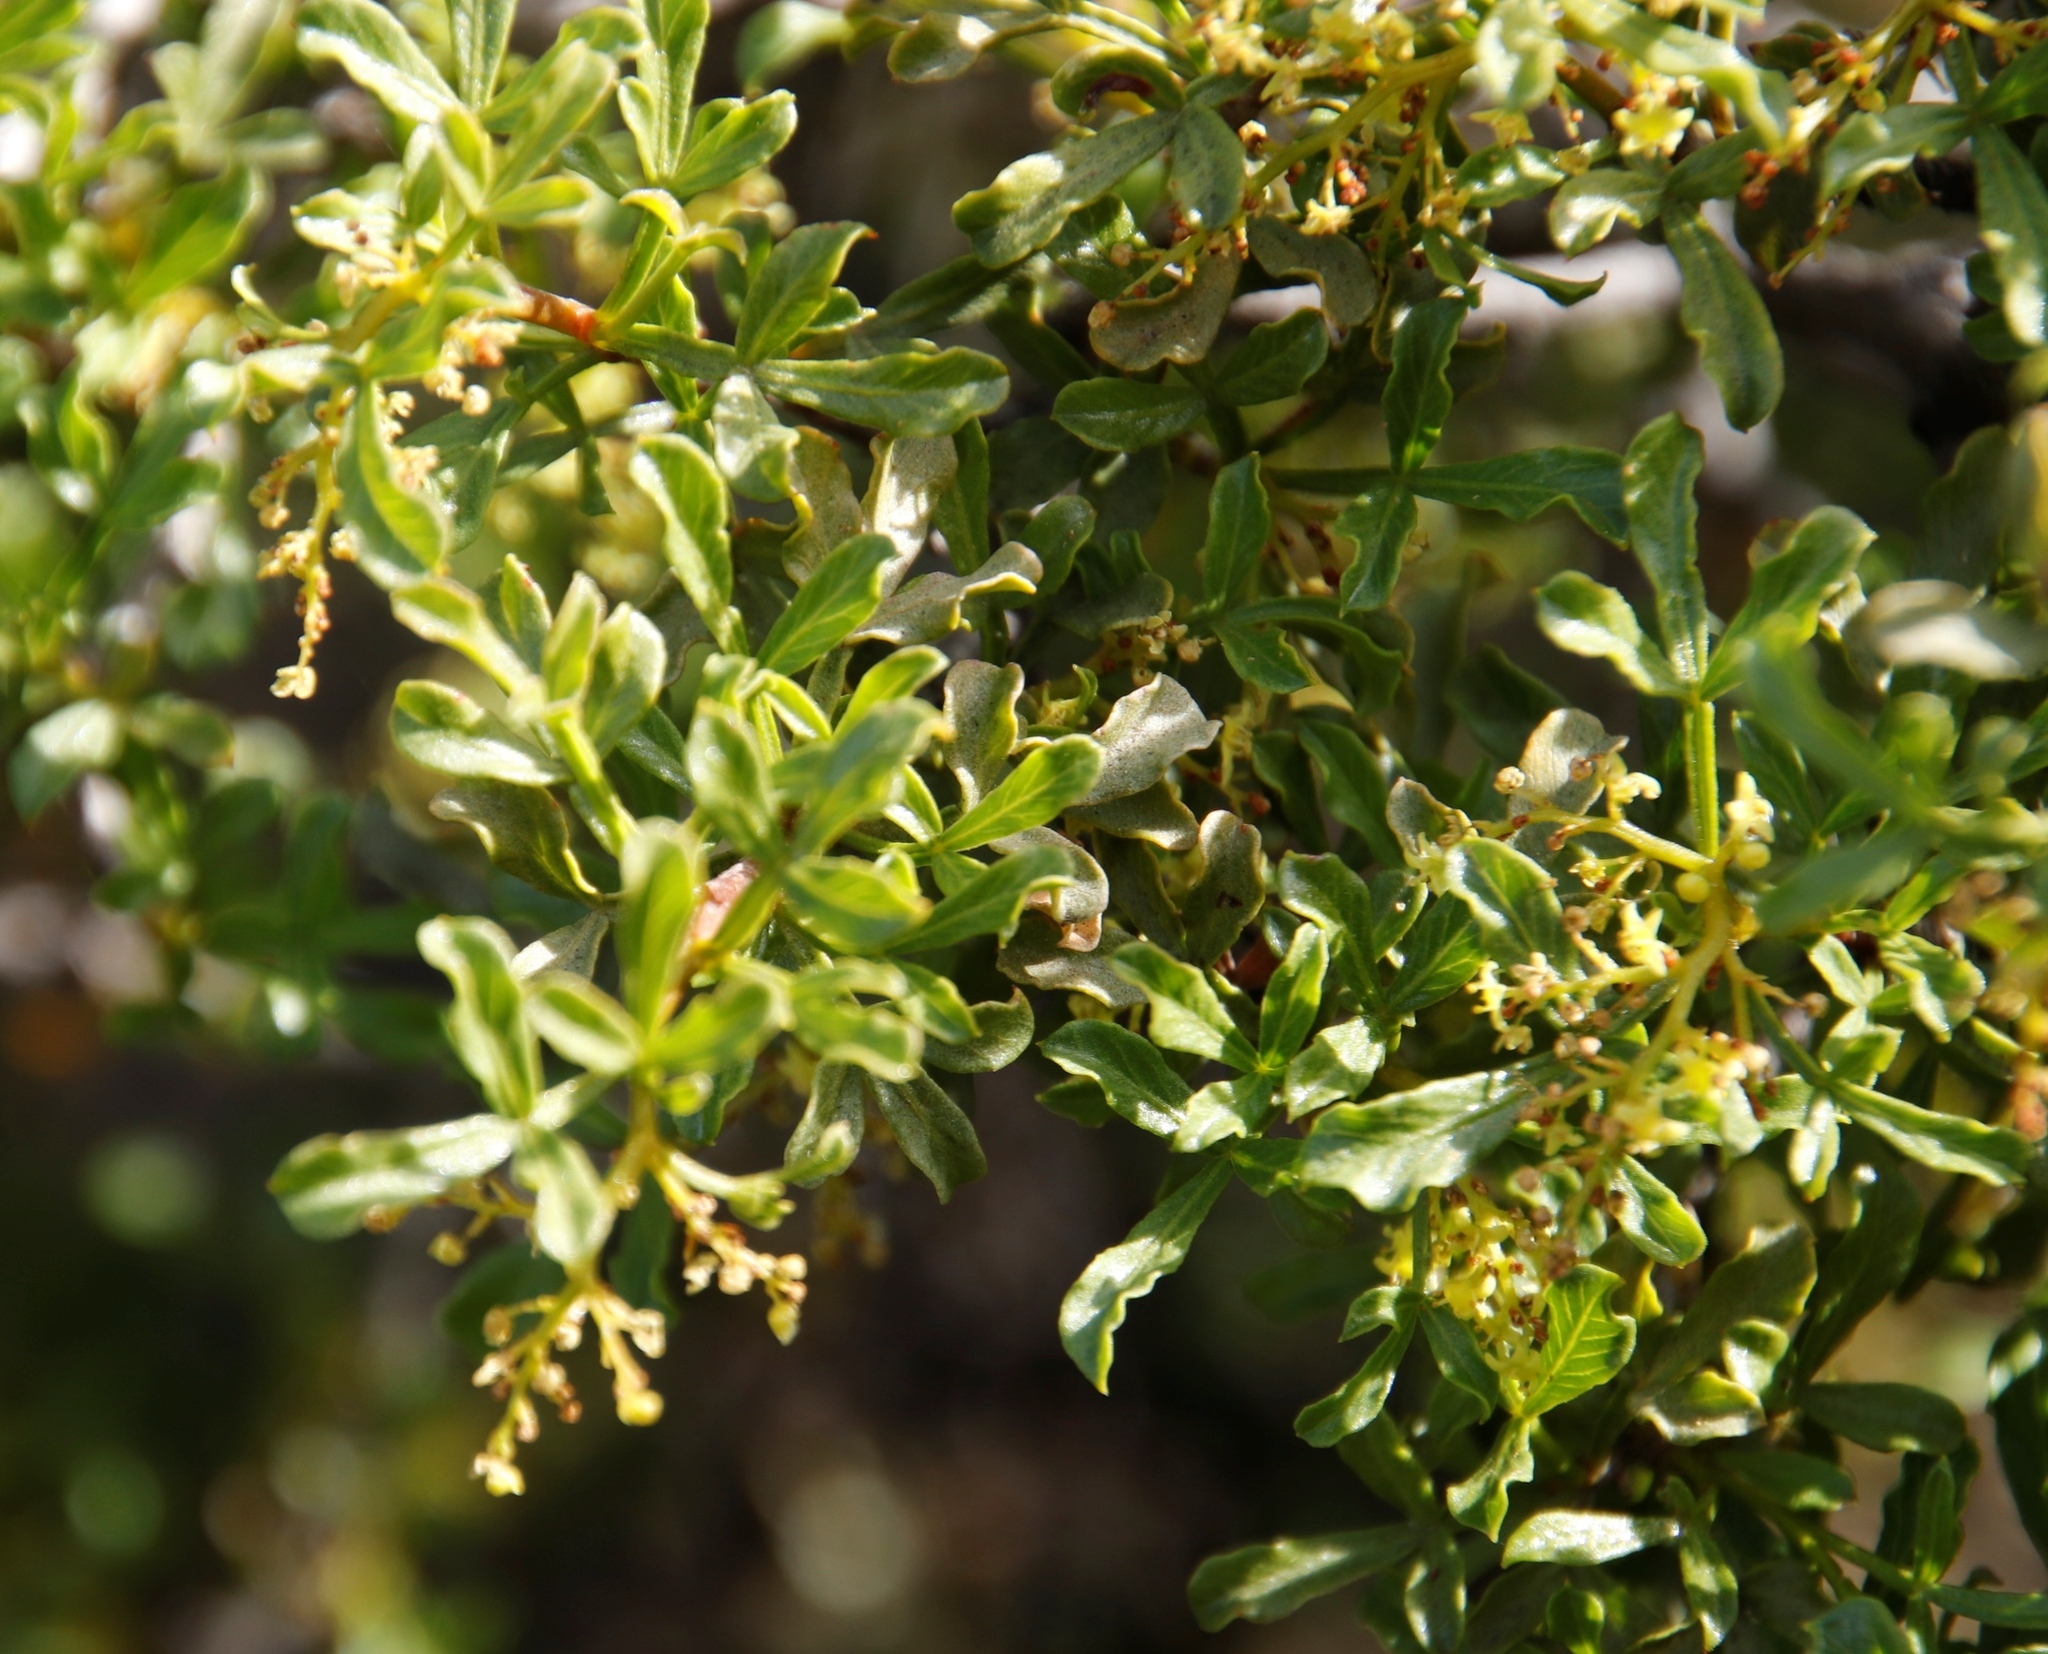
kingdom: Plantae
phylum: Tracheophyta
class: Magnoliopsida
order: Sapindales
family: Anacardiaceae
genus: Searsia
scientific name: Searsia undulata
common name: Namaqua kunibush
